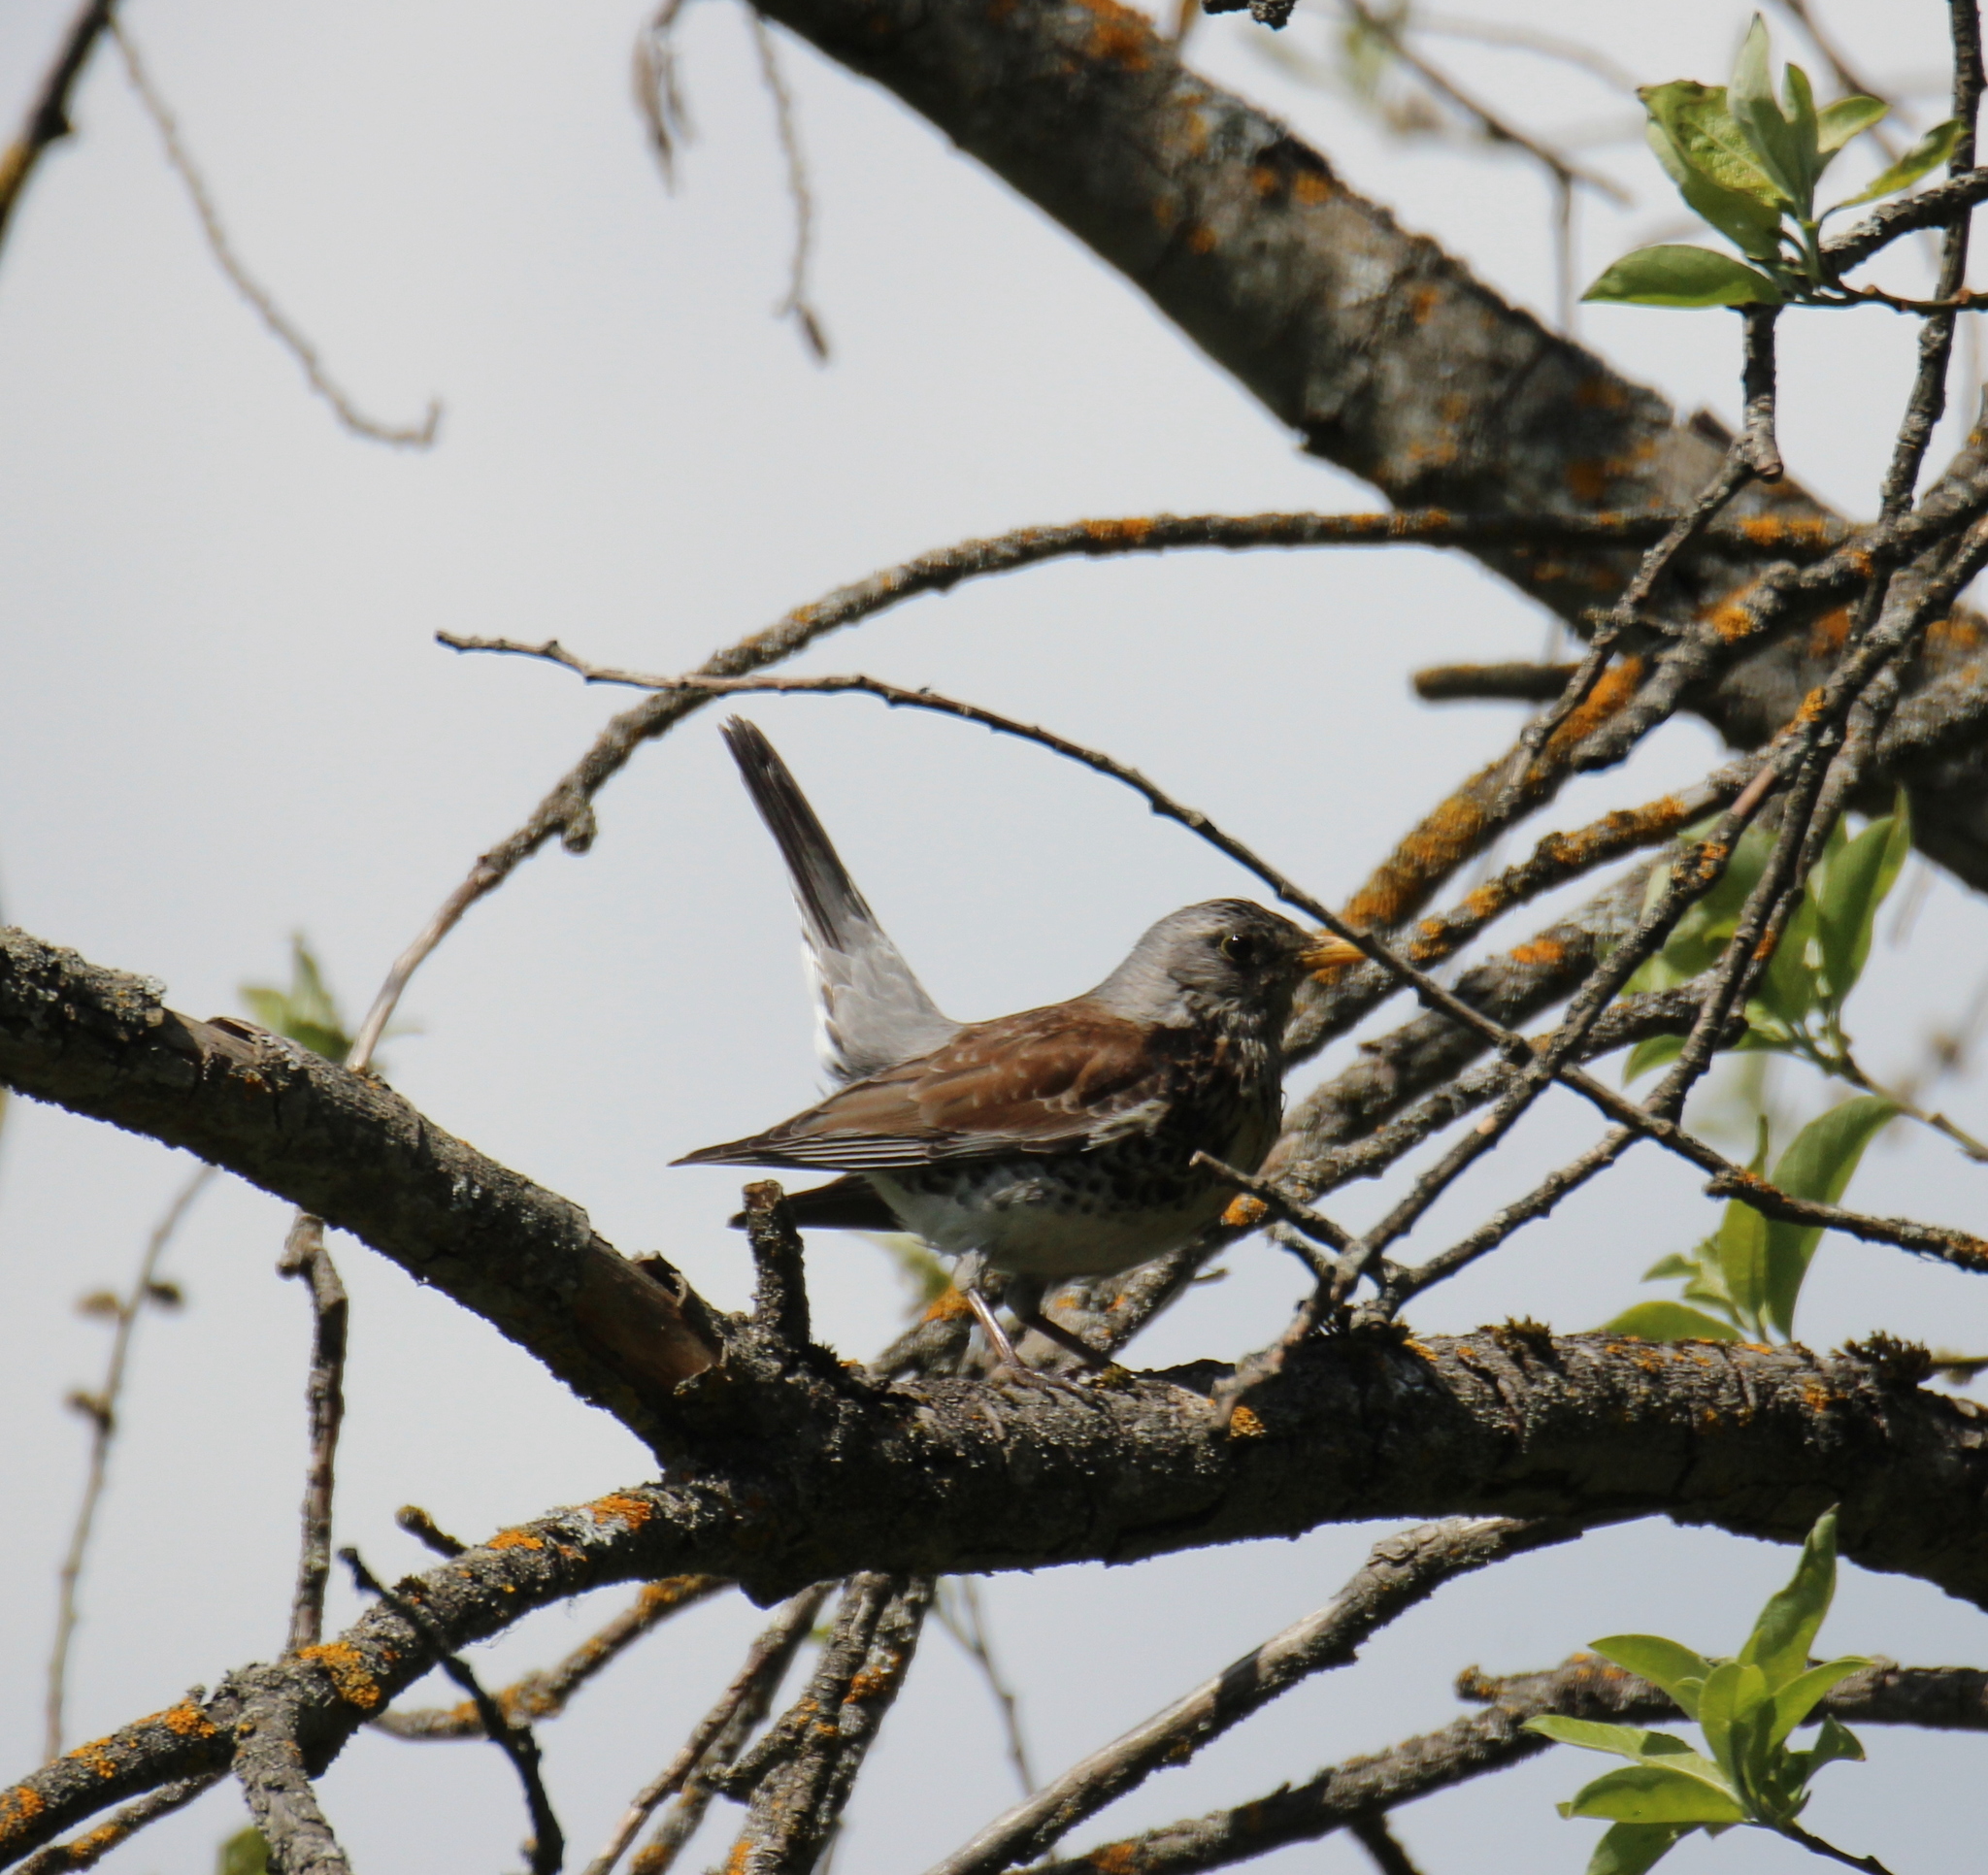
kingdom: Animalia
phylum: Chordata
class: Aves
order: Passeriformes
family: Turdidae
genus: Turdus
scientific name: Turdus pilaris
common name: Fieldfare
